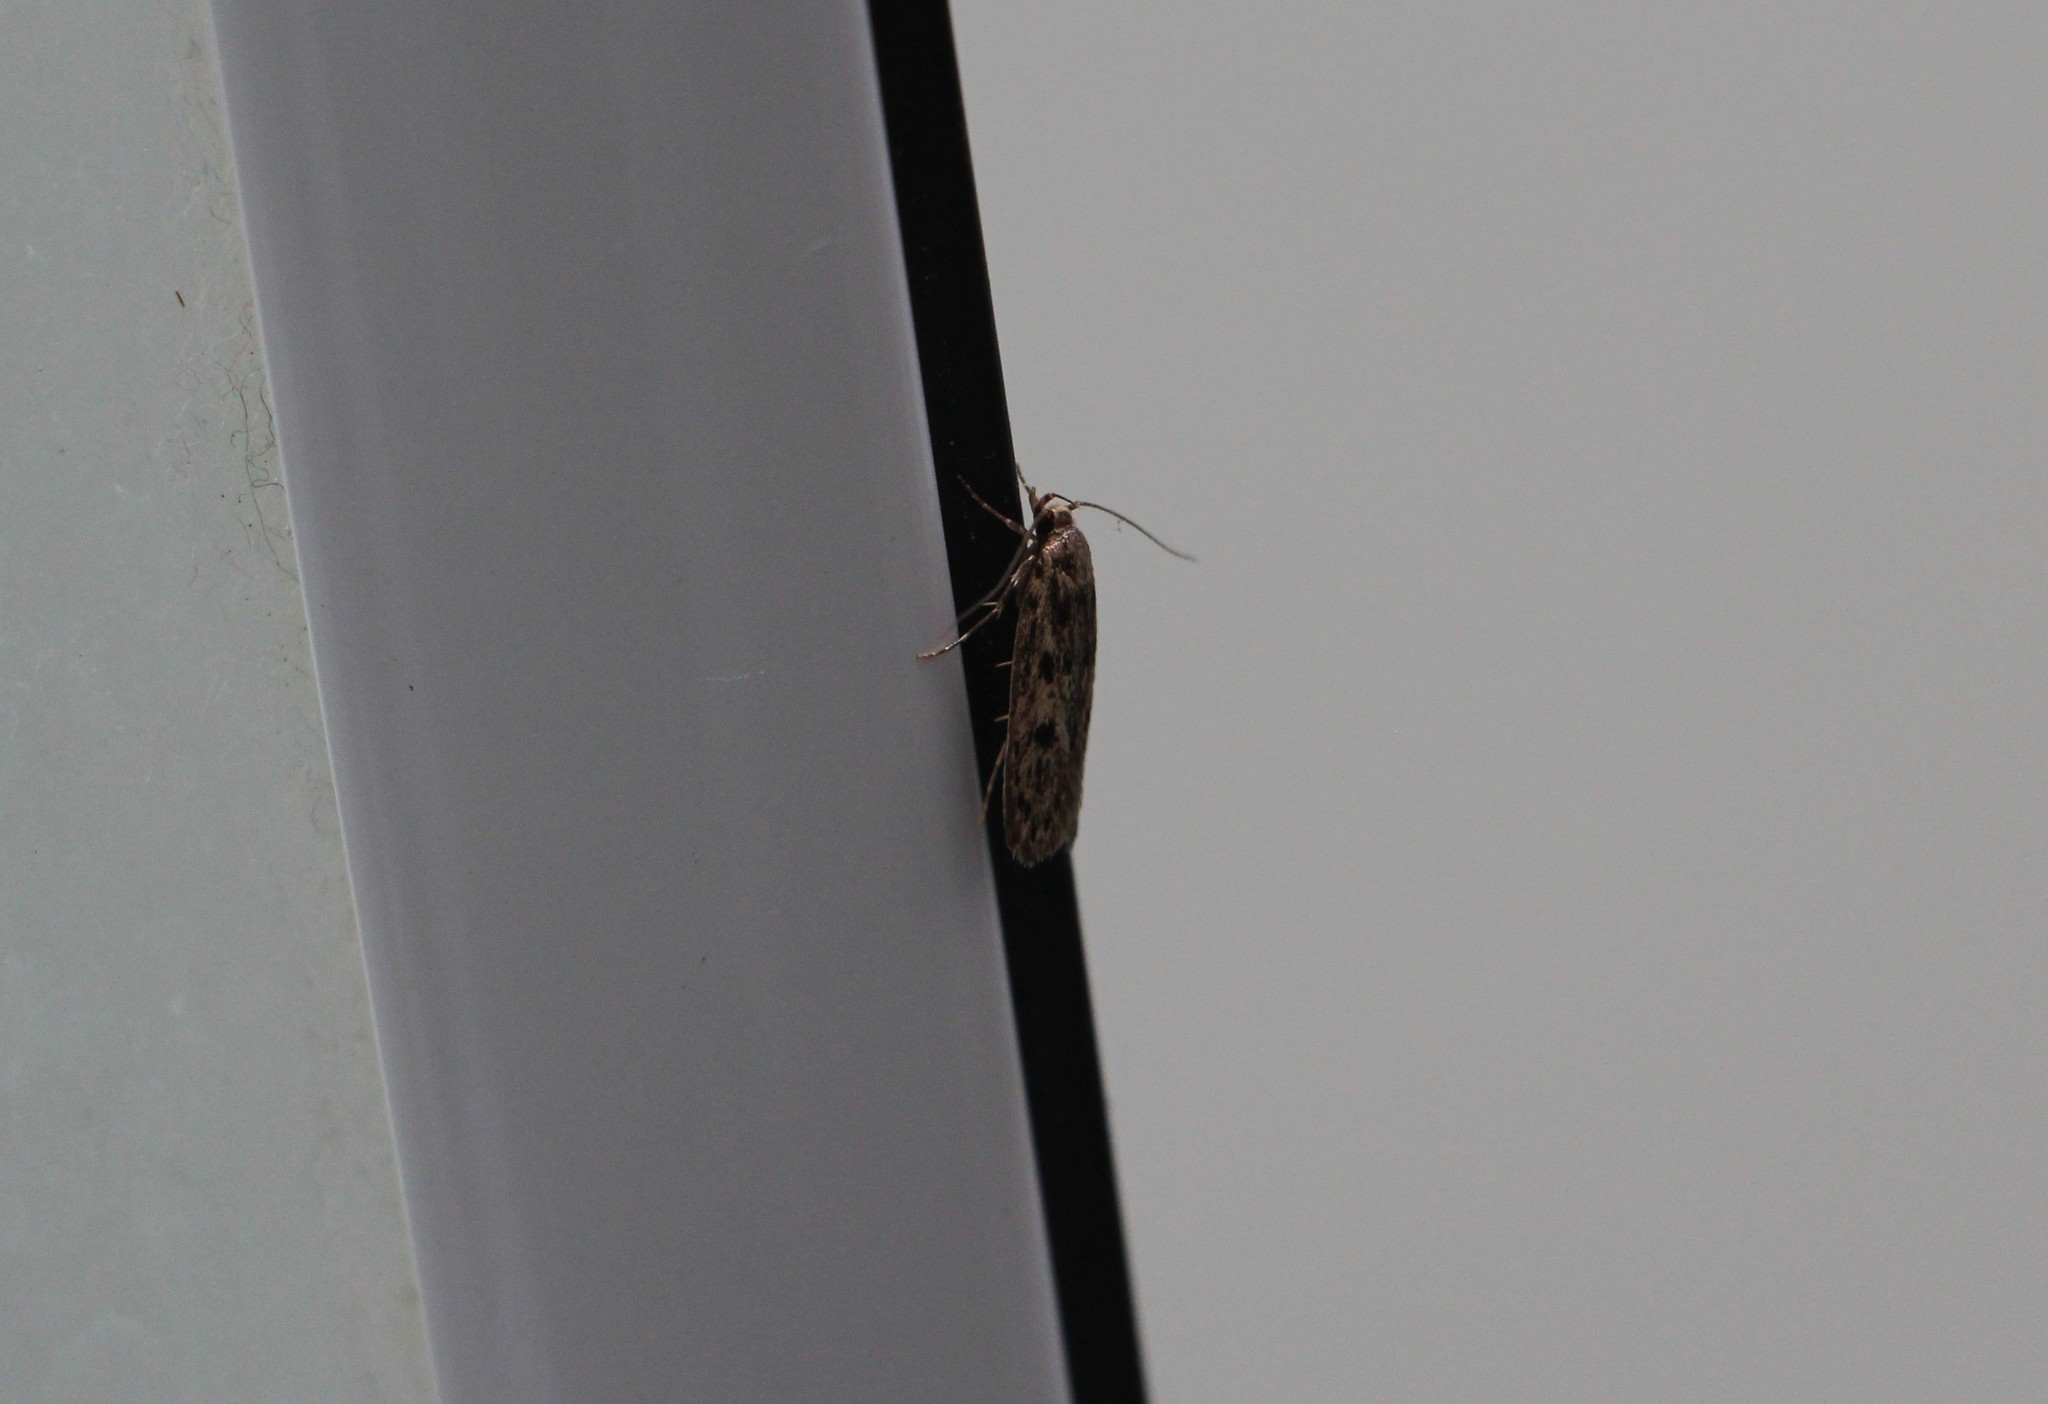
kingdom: Animalia
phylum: Arthropoda
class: Insecta
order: Lepidoptera
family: Oecophoridae
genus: Hofmannophila
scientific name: Hofmannophila pseudospretella
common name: Brown house moth
